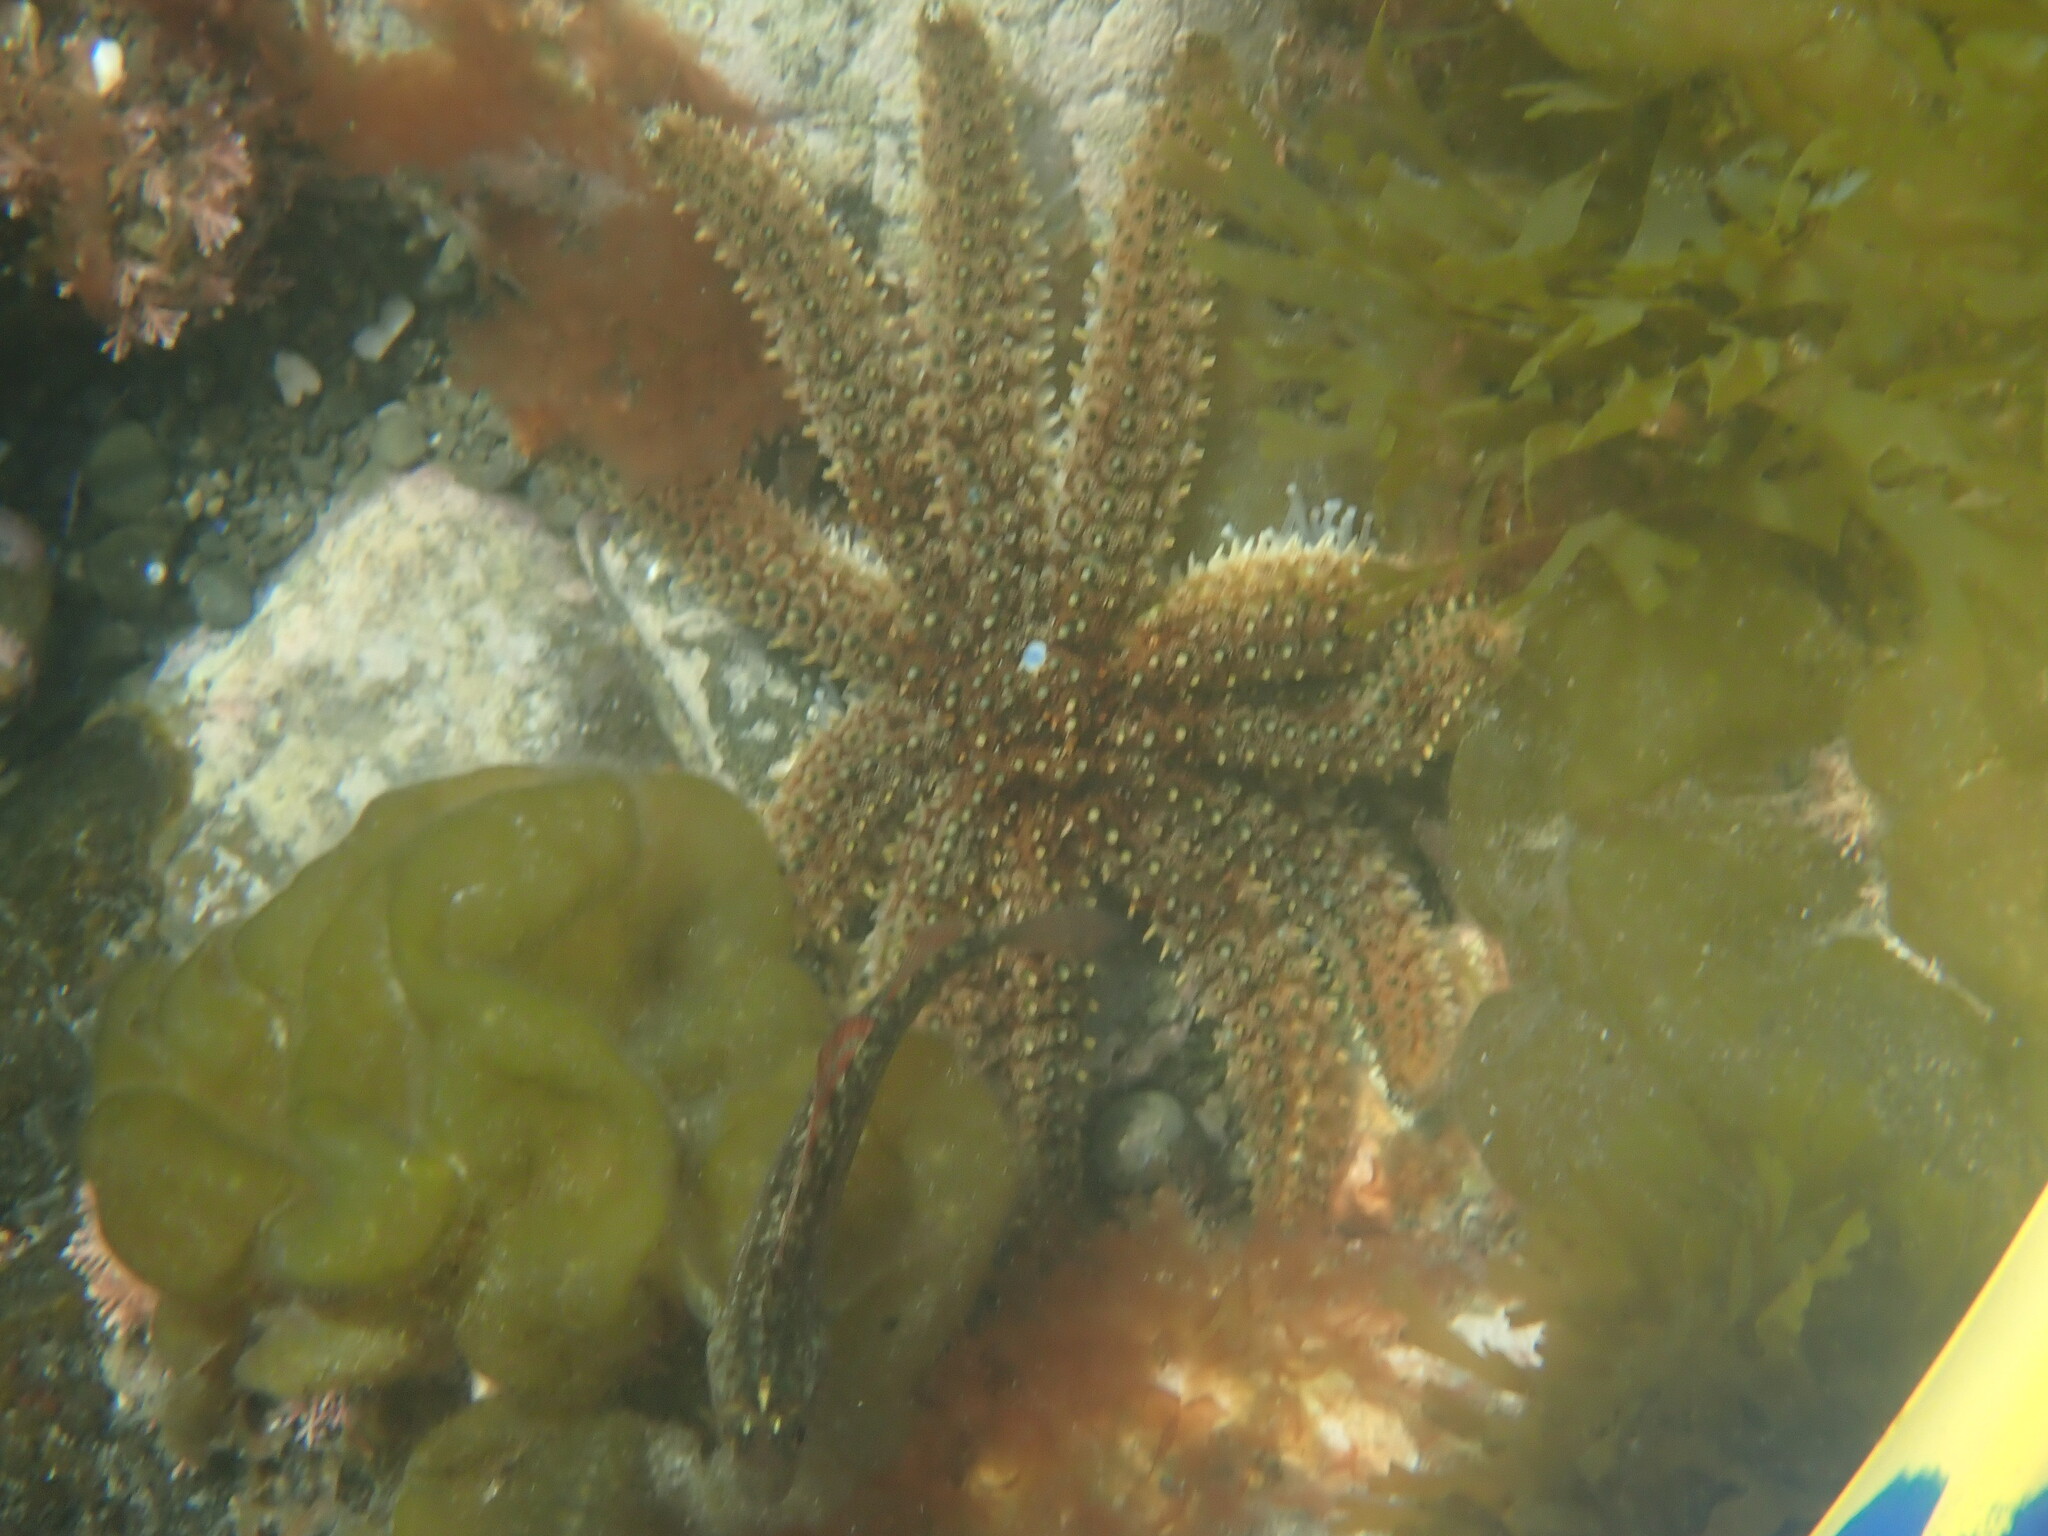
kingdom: Animalia
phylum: Echinodermata
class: Asteroidea
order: Forcipulatida
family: Asteriidae
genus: Coscinasterias
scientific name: Coscinasterias muricata
